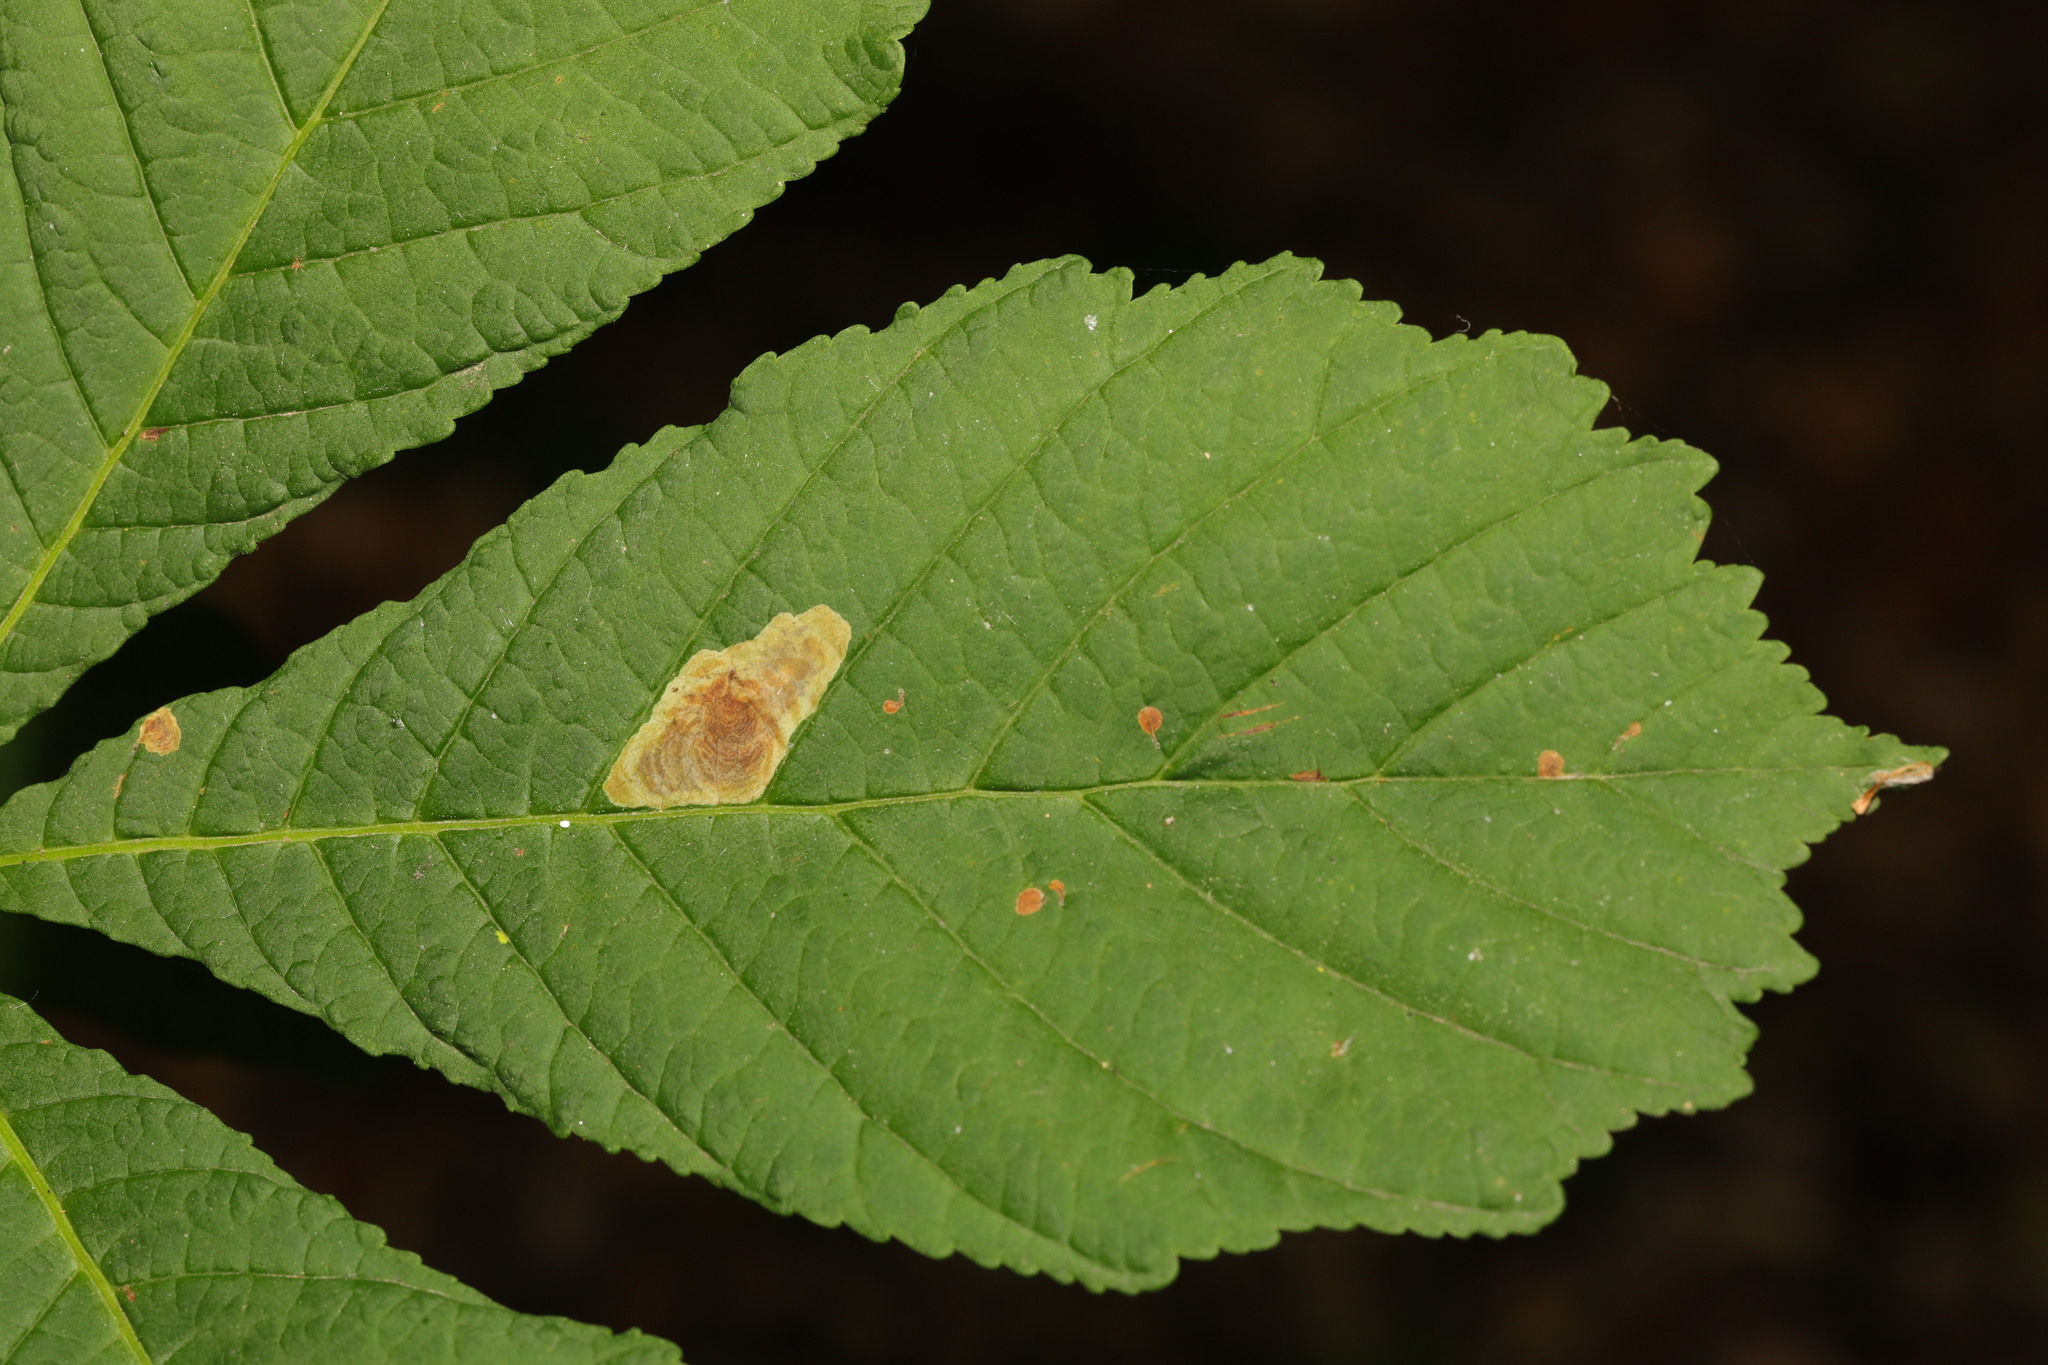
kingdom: Animalia
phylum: Arthropoda
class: Insecta
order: Lepidoptera
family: Gracillariidae
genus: Cameraria
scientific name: Cameraria ohridella
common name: Horse-chestnut leaf-miner
